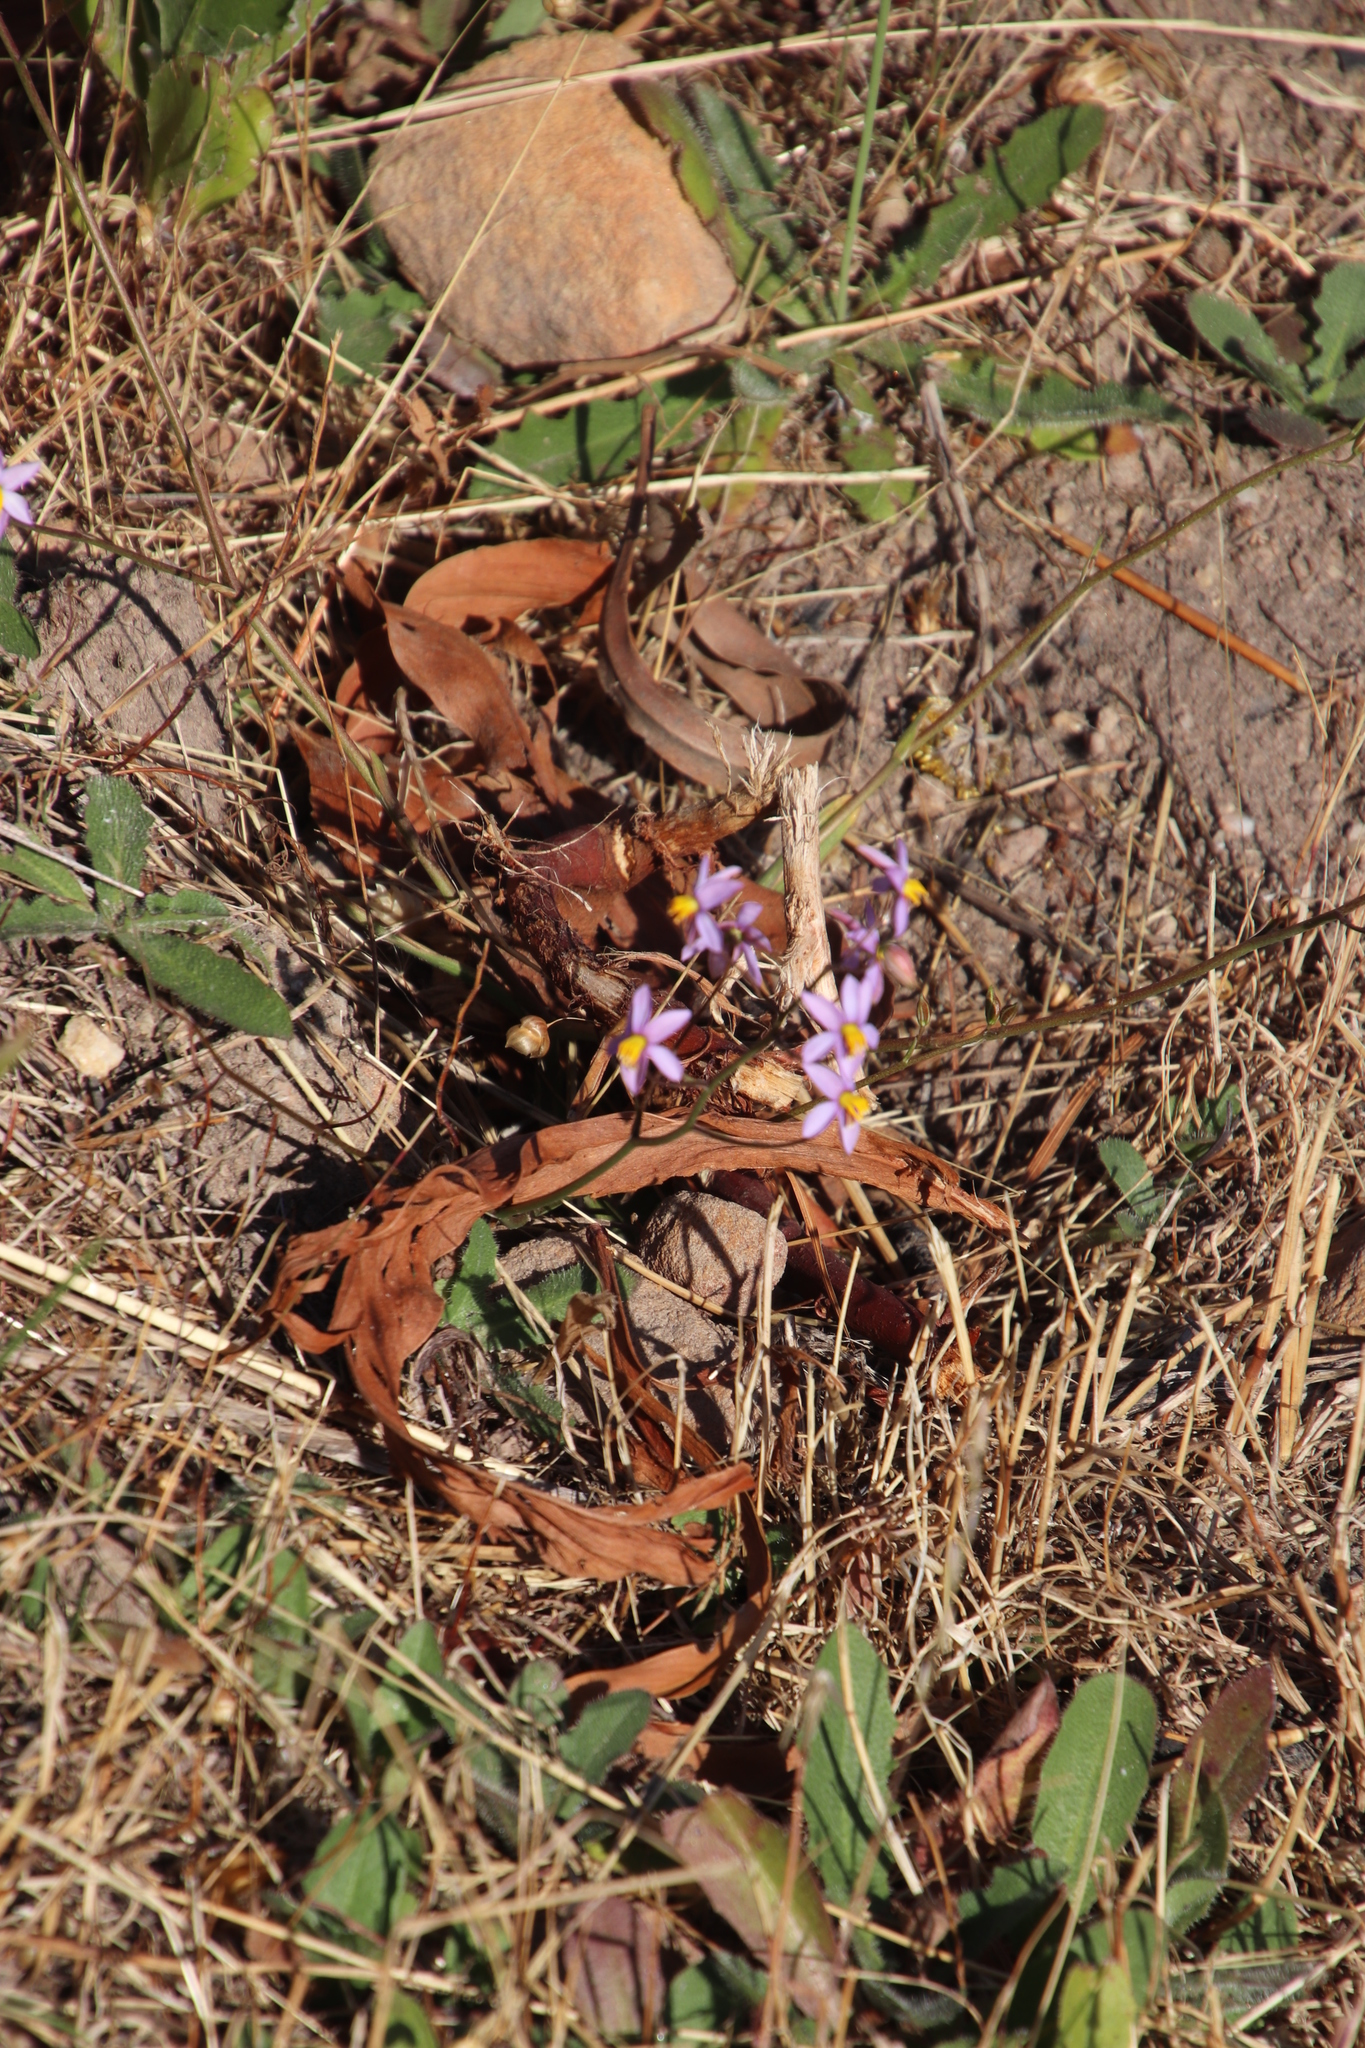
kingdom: Plantae
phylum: Tracheophyta
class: Liliopsida
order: Asparagales
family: Tecophilaeaceae
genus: Cyanella
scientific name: Cyanella hyacinthoides
